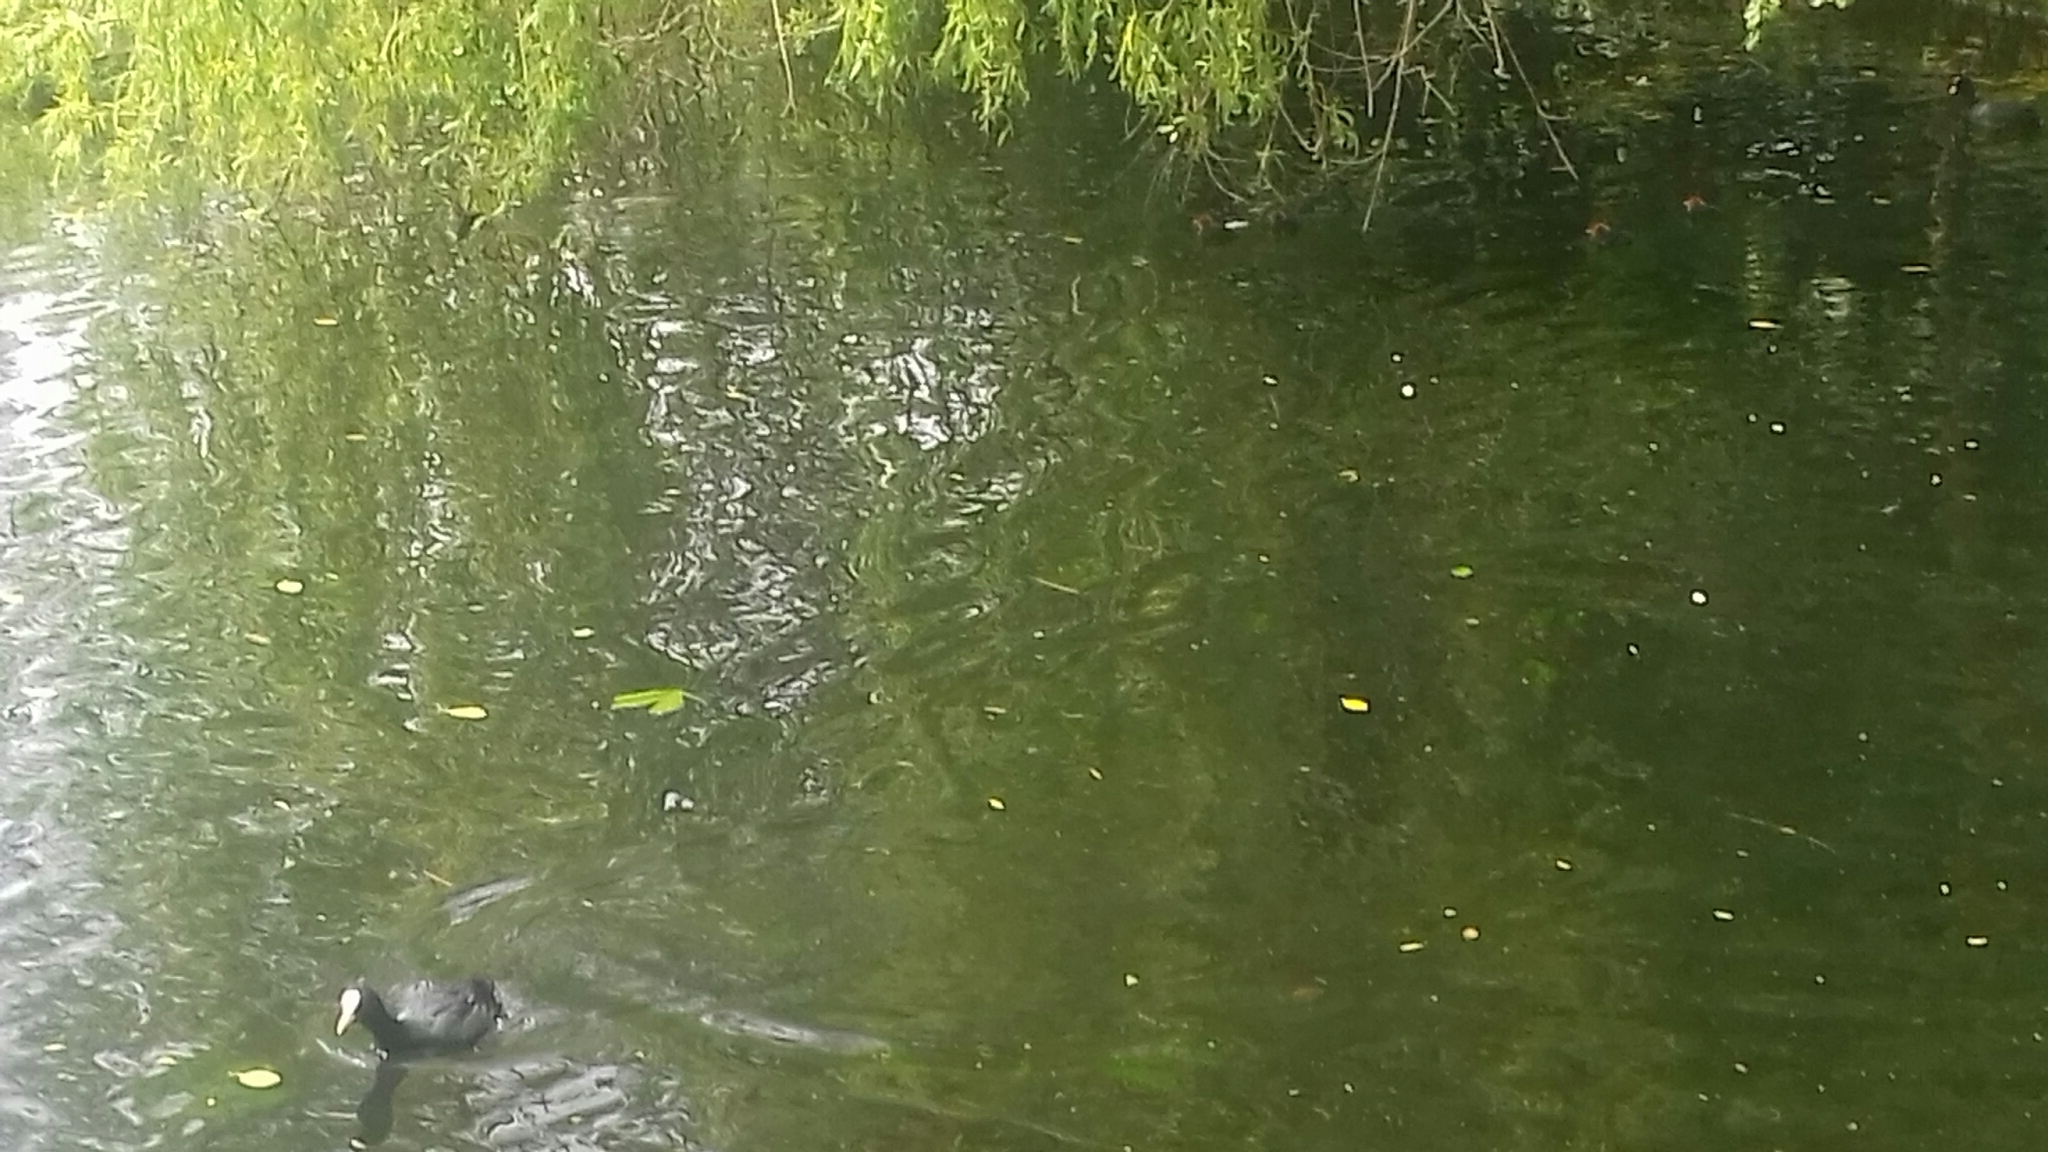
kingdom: Animalia
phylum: Chordata
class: Aves
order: Gruiformes
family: Rallidae
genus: Fulica
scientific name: Fulica atra
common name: Eurasian coot
